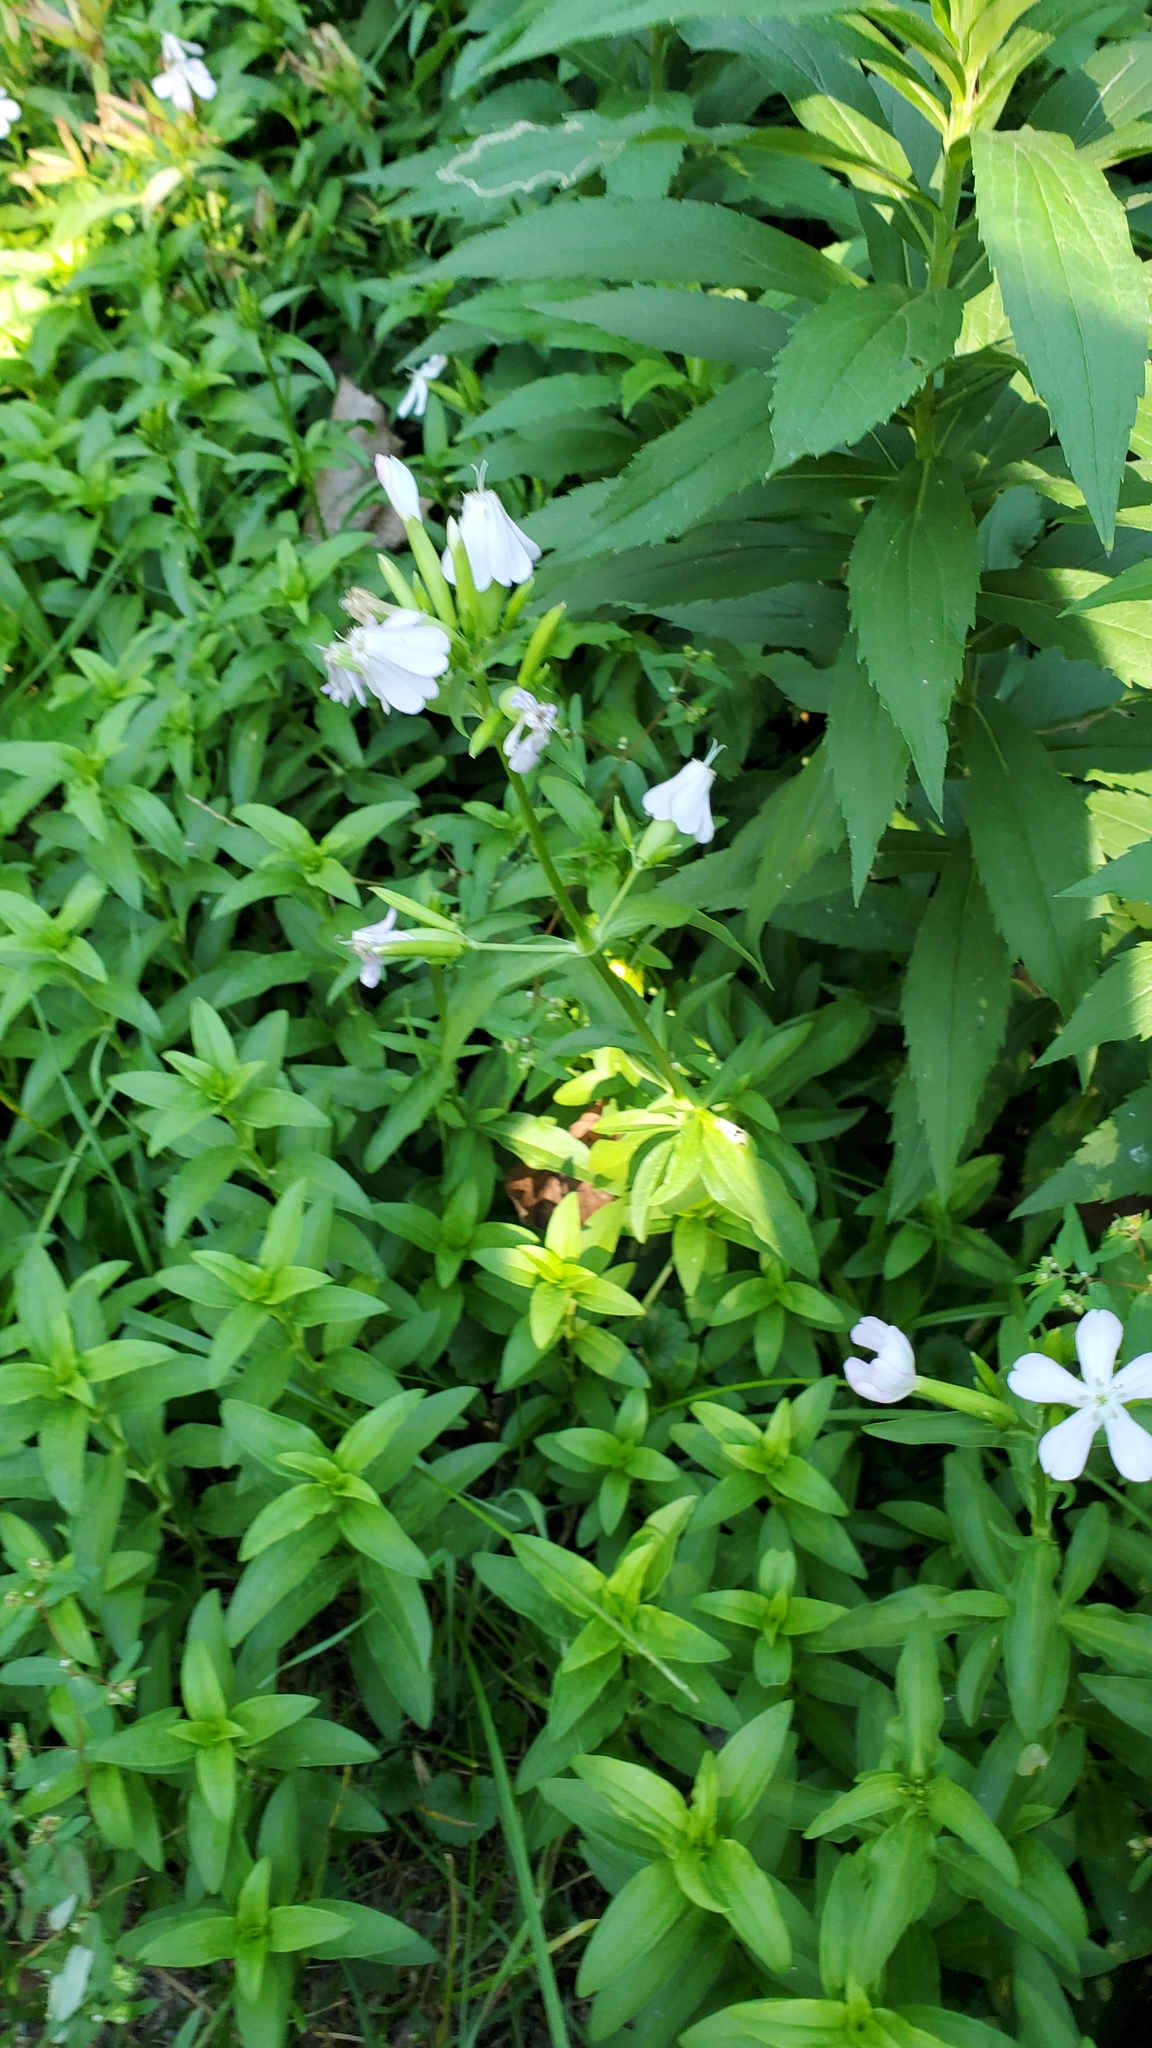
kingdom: Plantae
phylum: Tracheophyta
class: Magnoliopsida
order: Caryophyllales
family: Caryophyllaceae
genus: Saponaria
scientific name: Saponaria officinalis
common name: Soapwort
